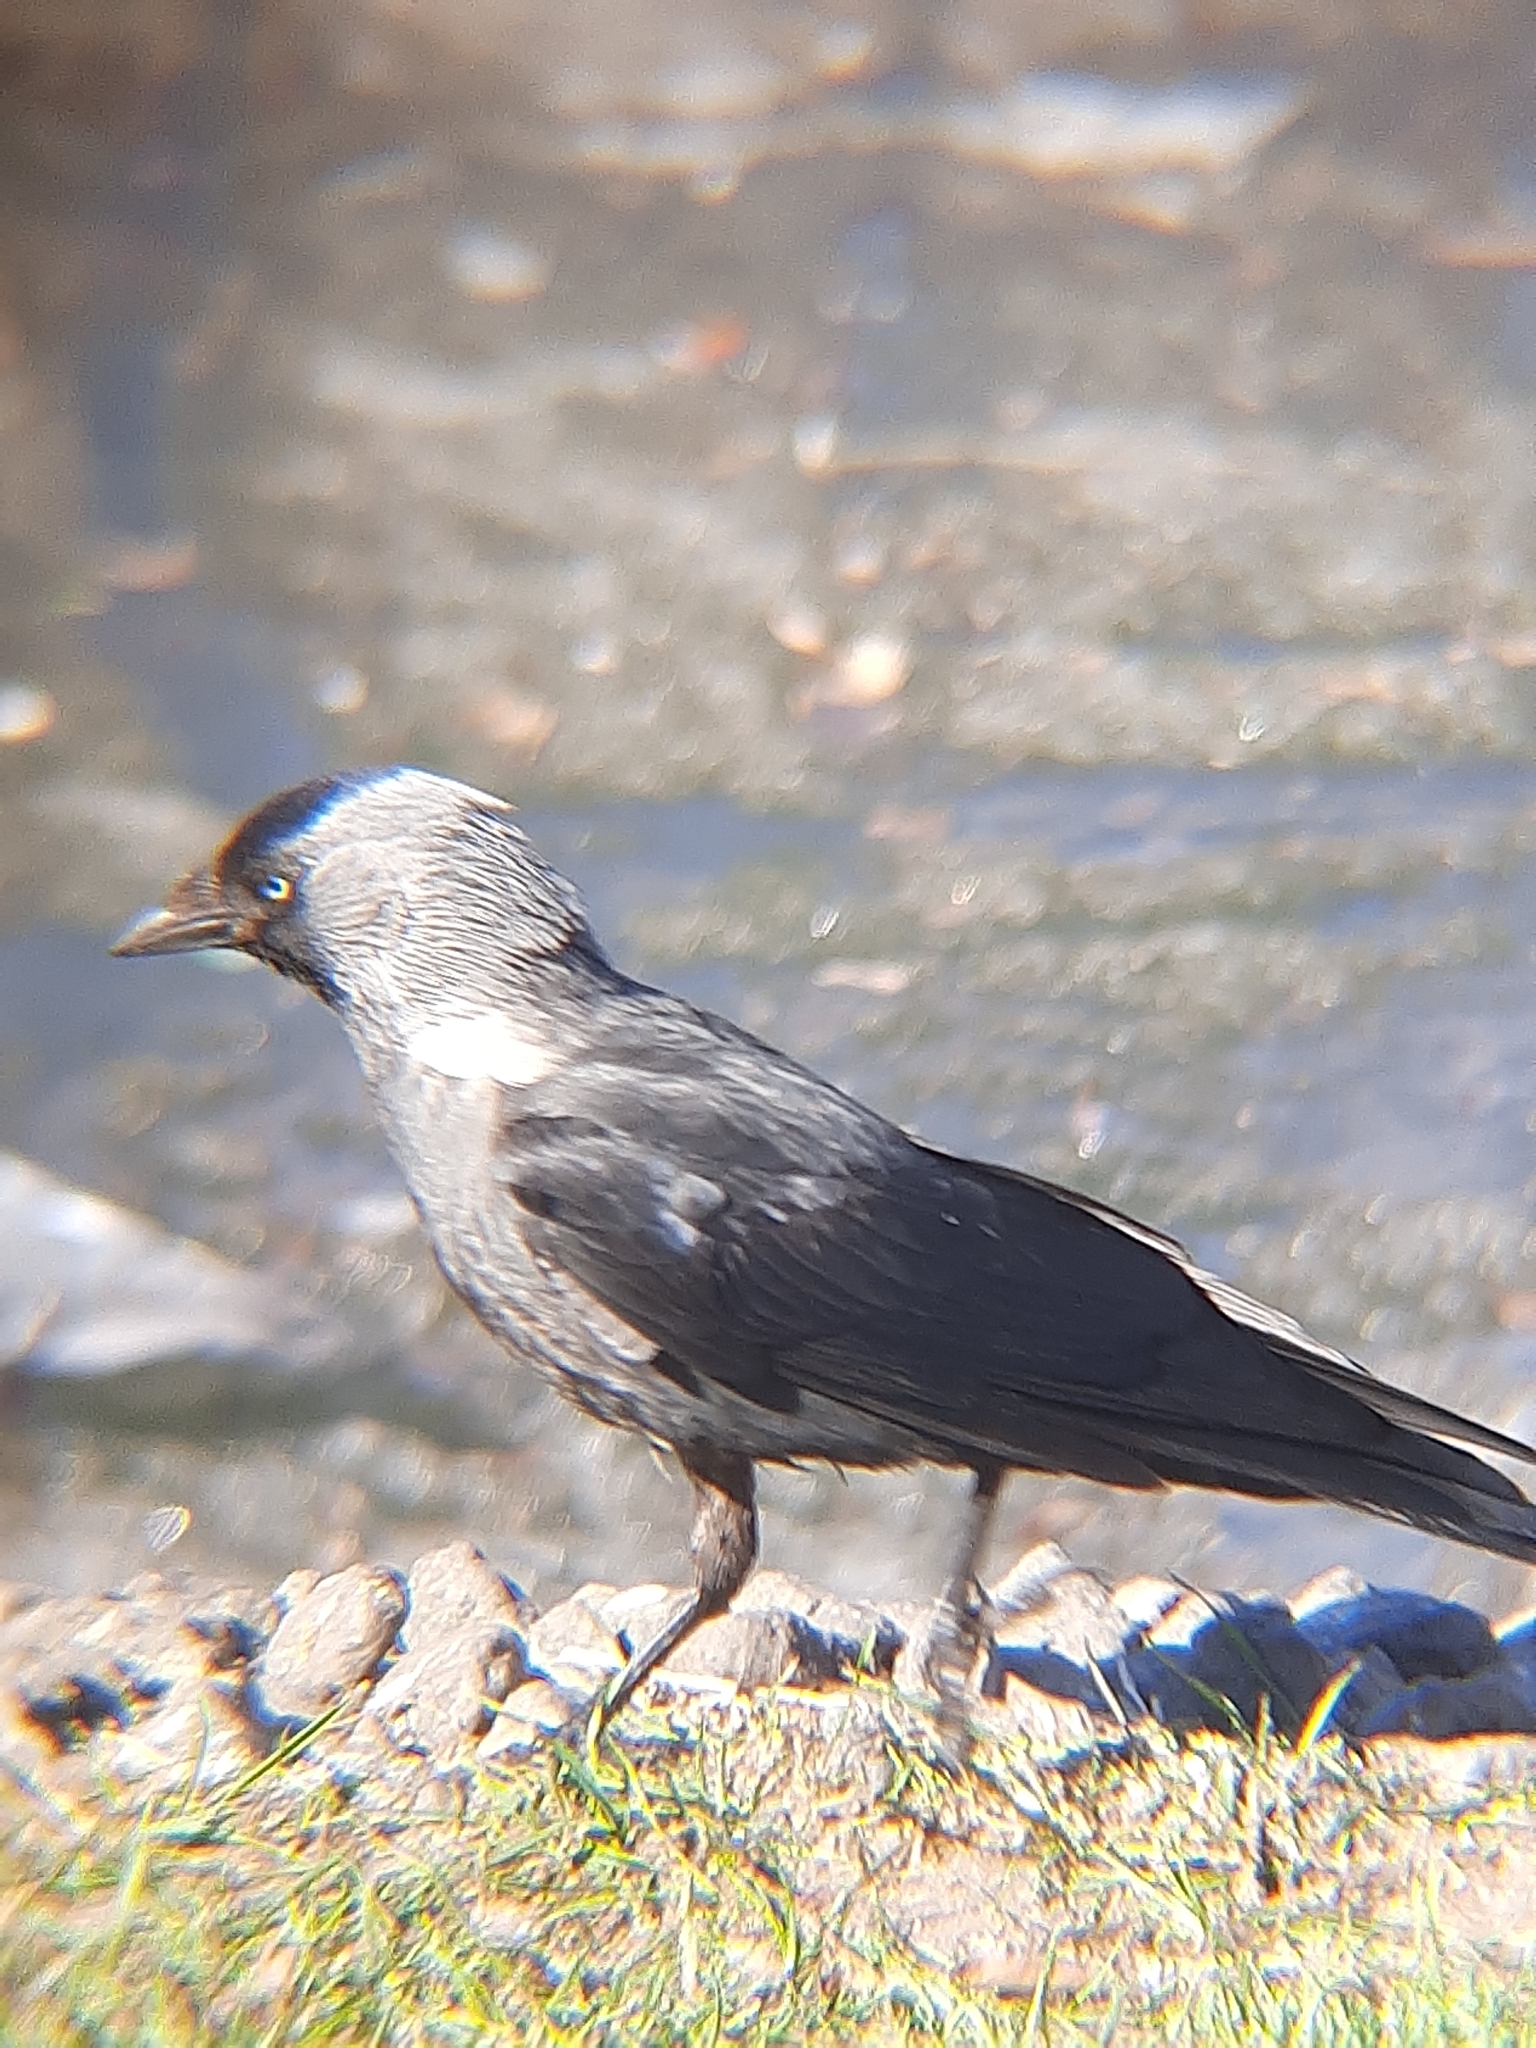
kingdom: Animalia
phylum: Chordata
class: Aves
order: Passeriformes
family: Corvidae
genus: Coloeus
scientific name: Coloeus monedula
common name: Western jackdaw
